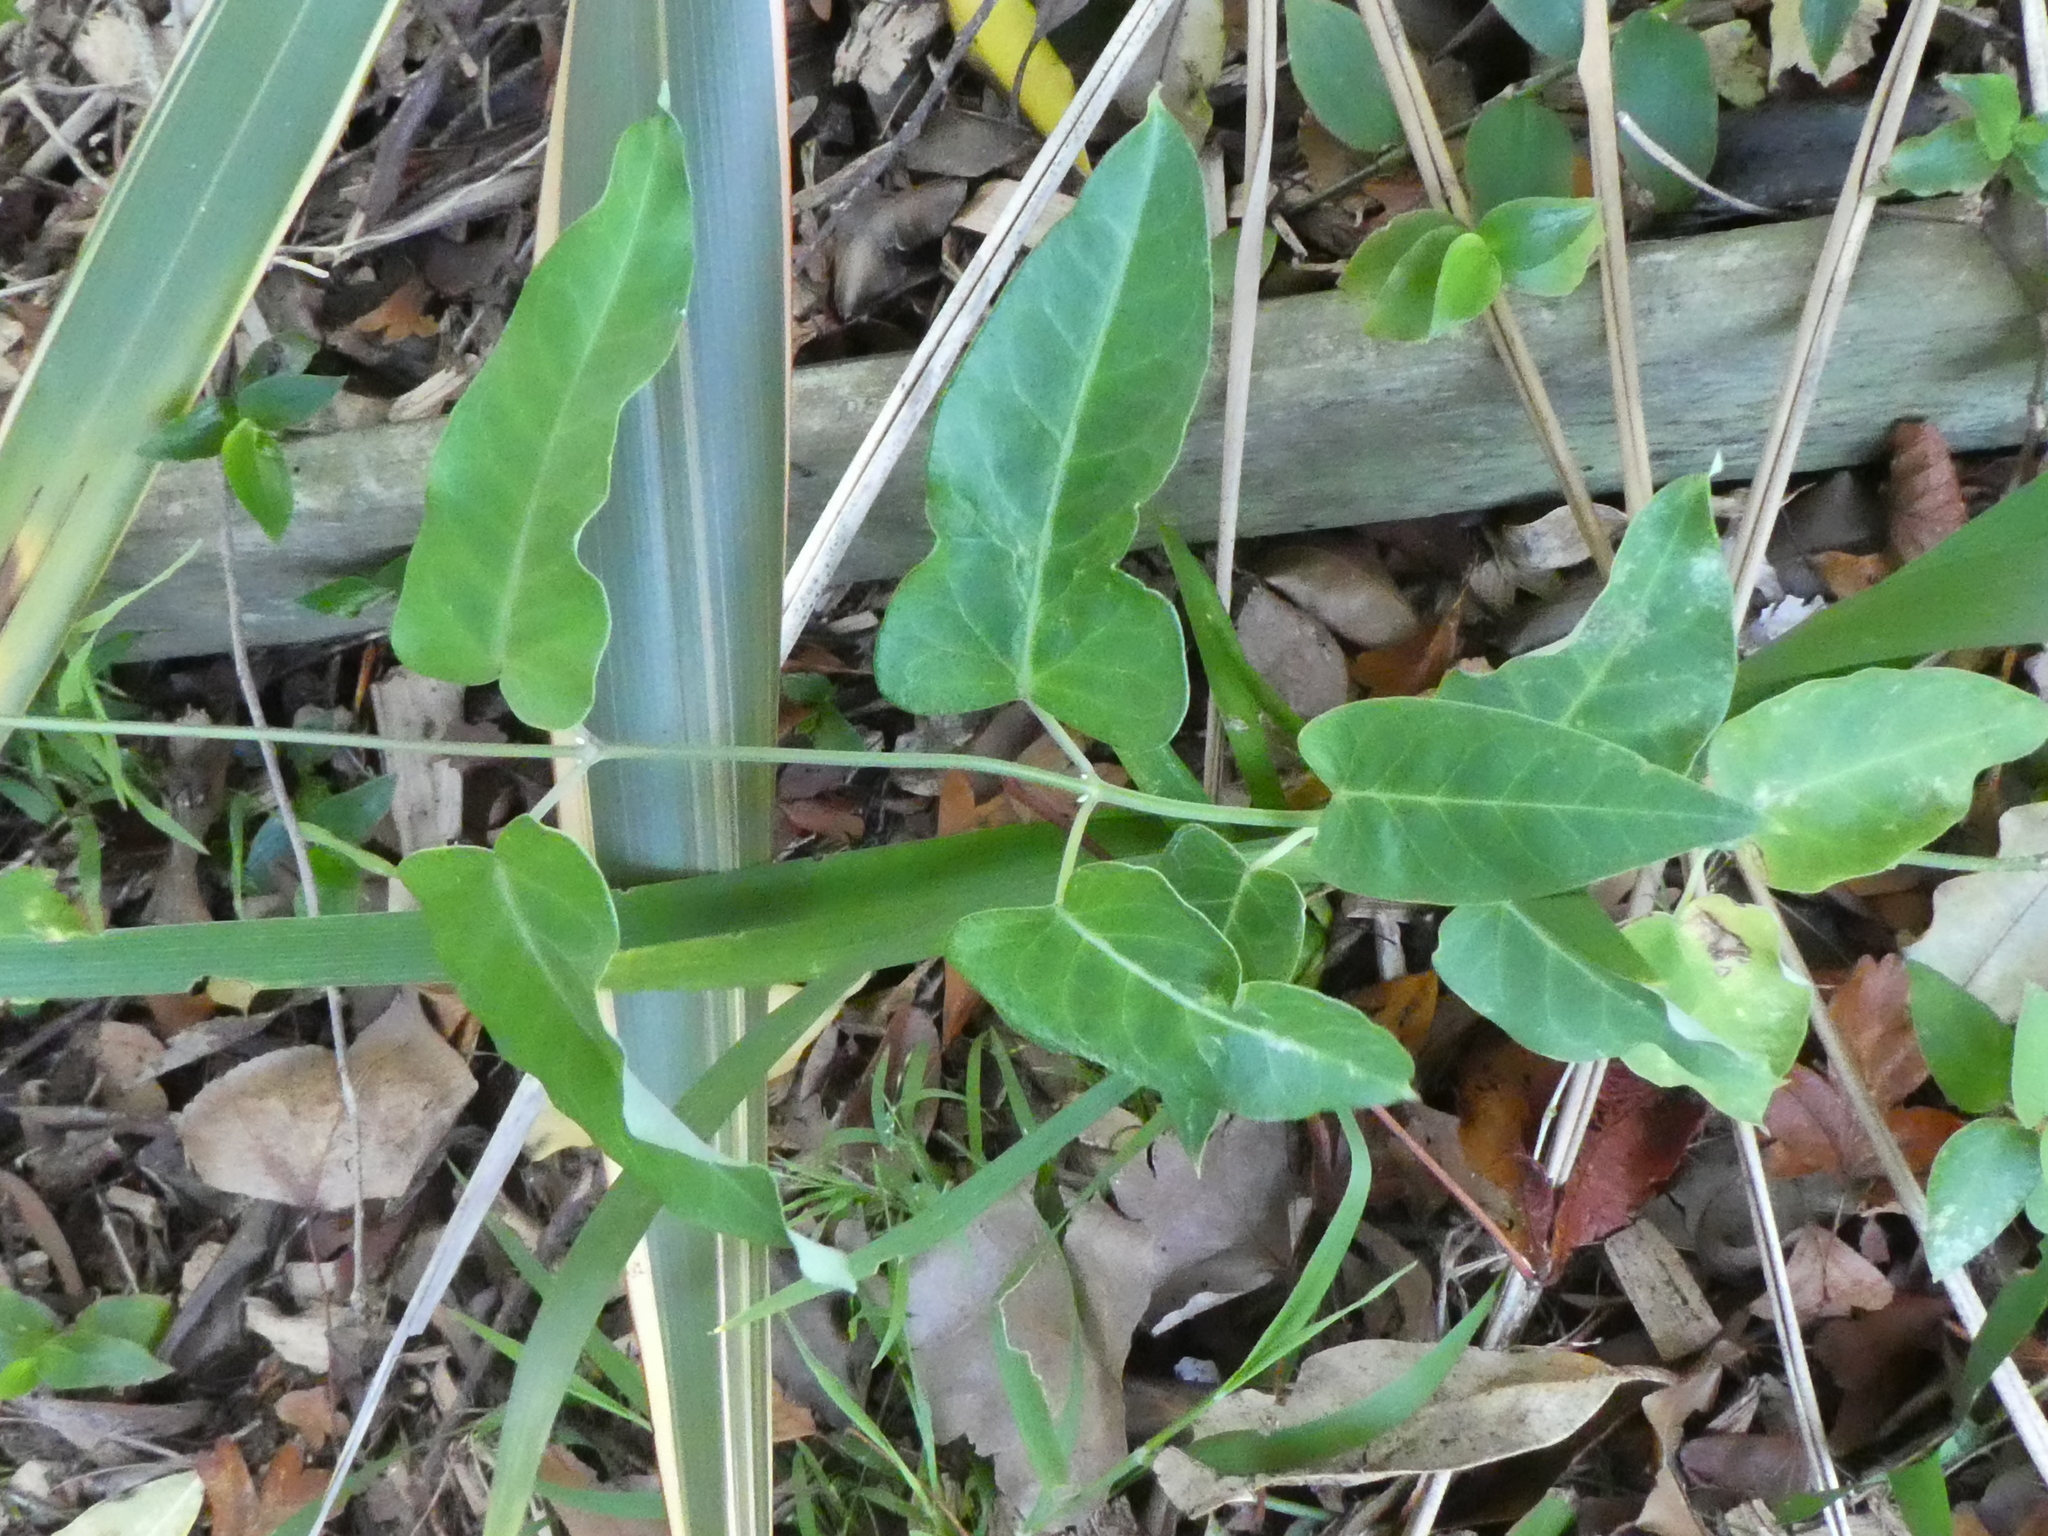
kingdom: Plantae
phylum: Tracheophyta
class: Magnoliopsida
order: Gentianales
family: Apocynaceae
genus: Araujia
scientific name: Araujia sericifera
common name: White bladderflower
